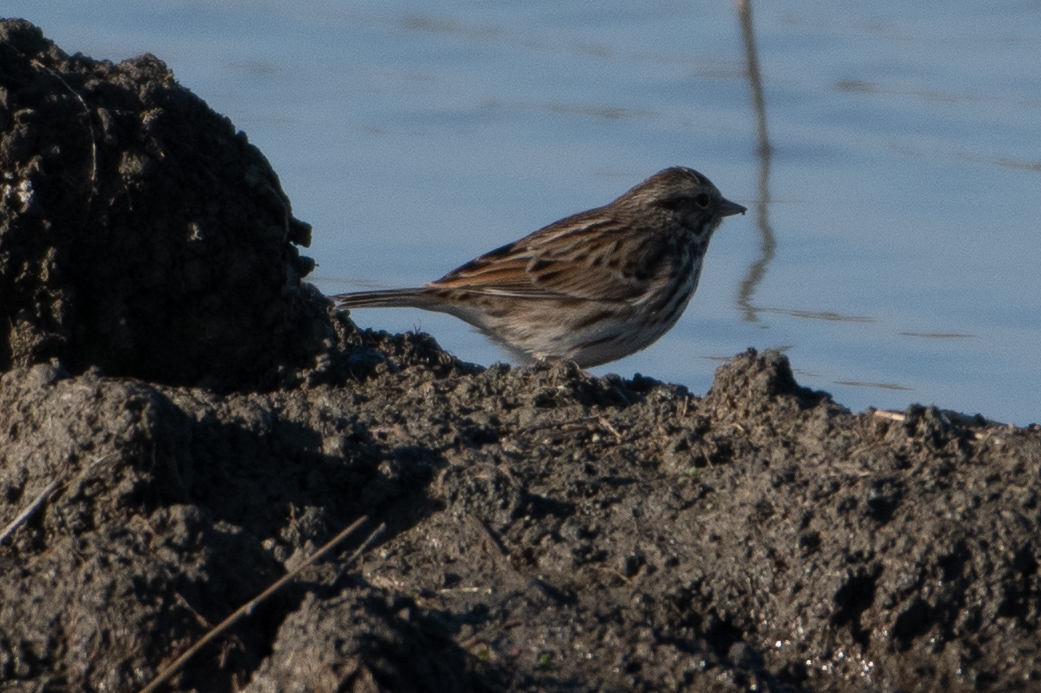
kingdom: Animalia
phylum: Chordata
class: Aves
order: Passeriformes
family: Passerellidae
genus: Passerculus
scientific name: Passerculus sandwichensis
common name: Savannah sparrow
